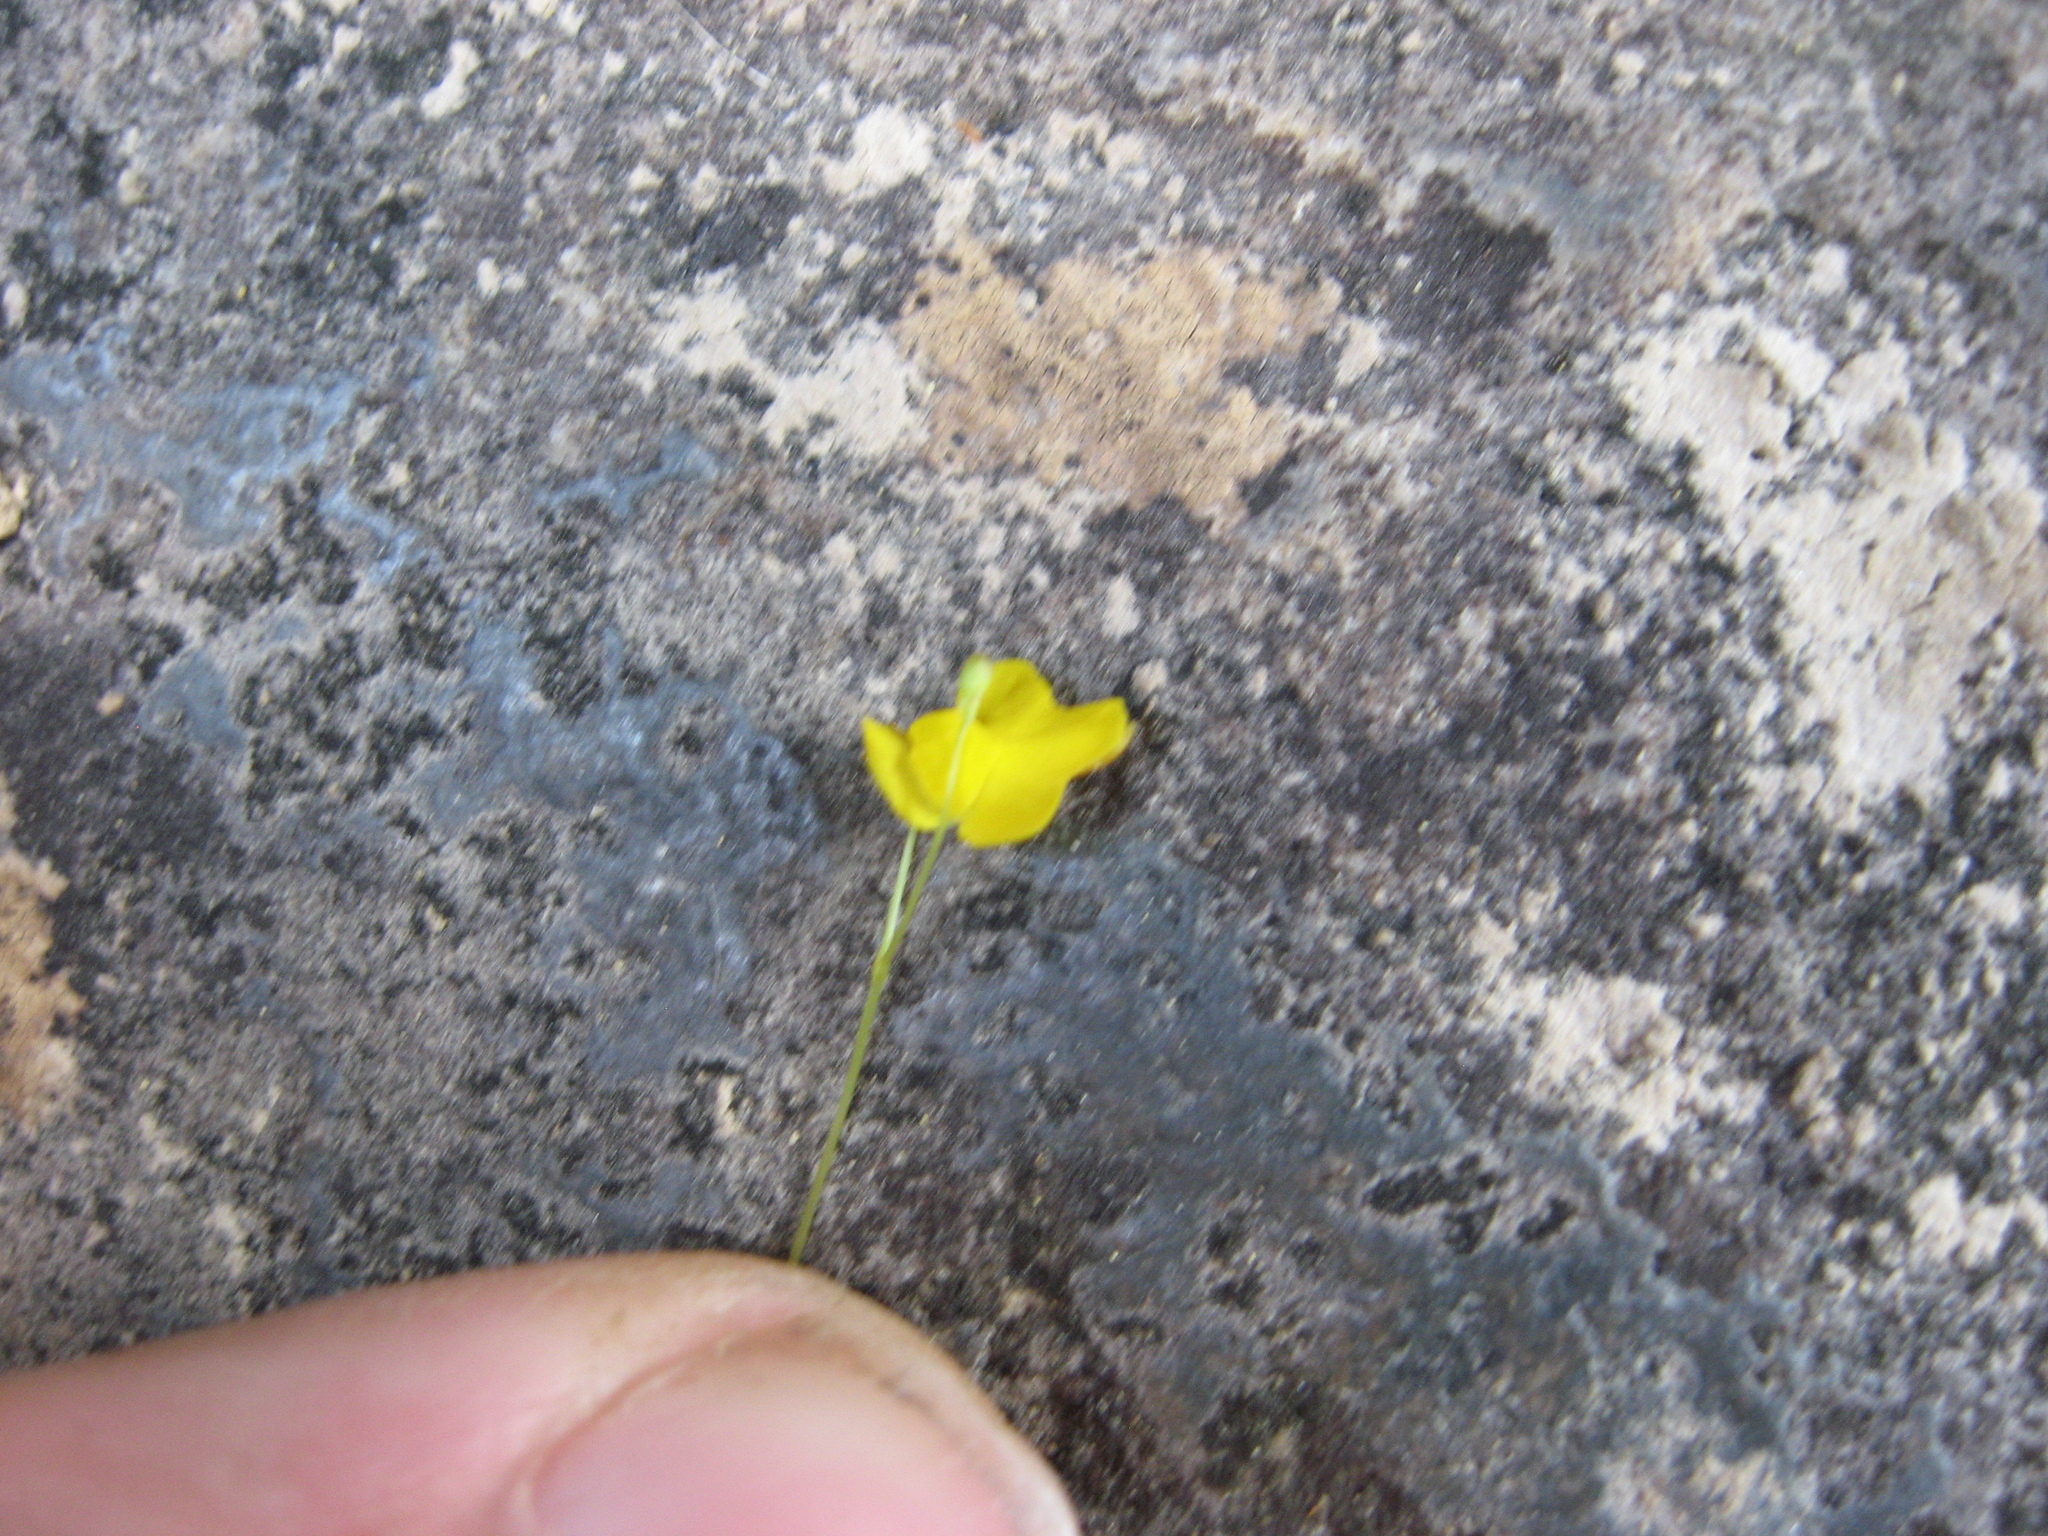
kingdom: Plantae
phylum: Tracheophyta
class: Magnoliopsida
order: Lamiales
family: Lentibulariaceae
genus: Utricularia
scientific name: Utricularia subulata
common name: Tiny bladderwort
